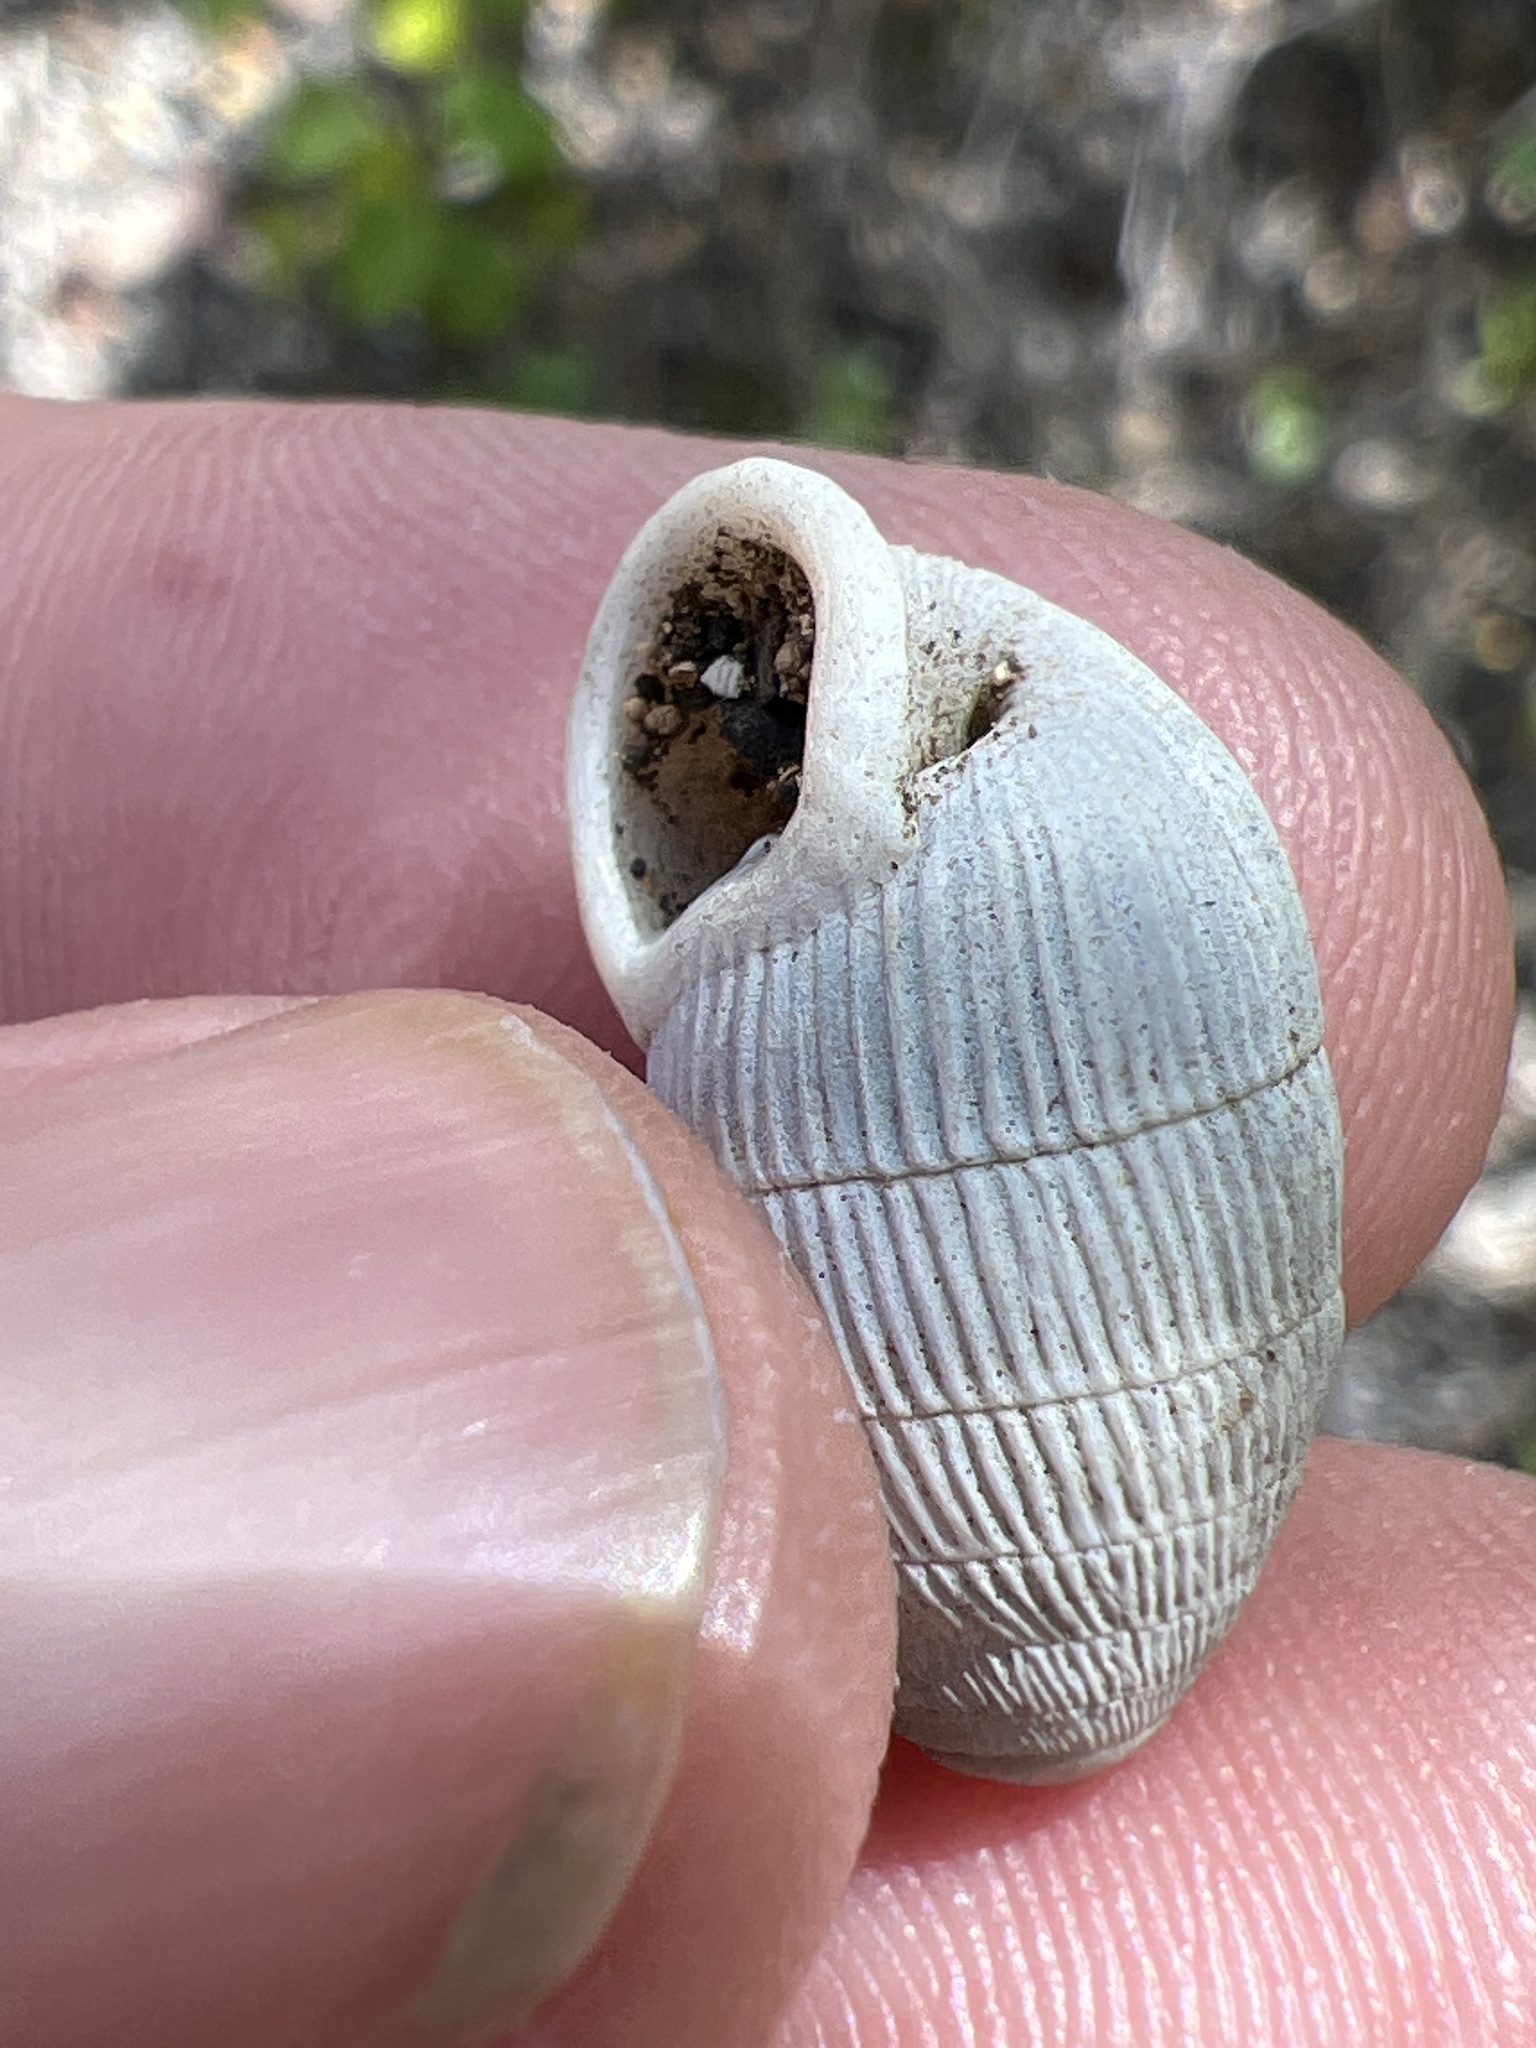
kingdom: Animalia
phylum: Mollusca
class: Gastropoda
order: Stylommatophora
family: Cerionidae
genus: Cerion
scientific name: Cerion striatellum
